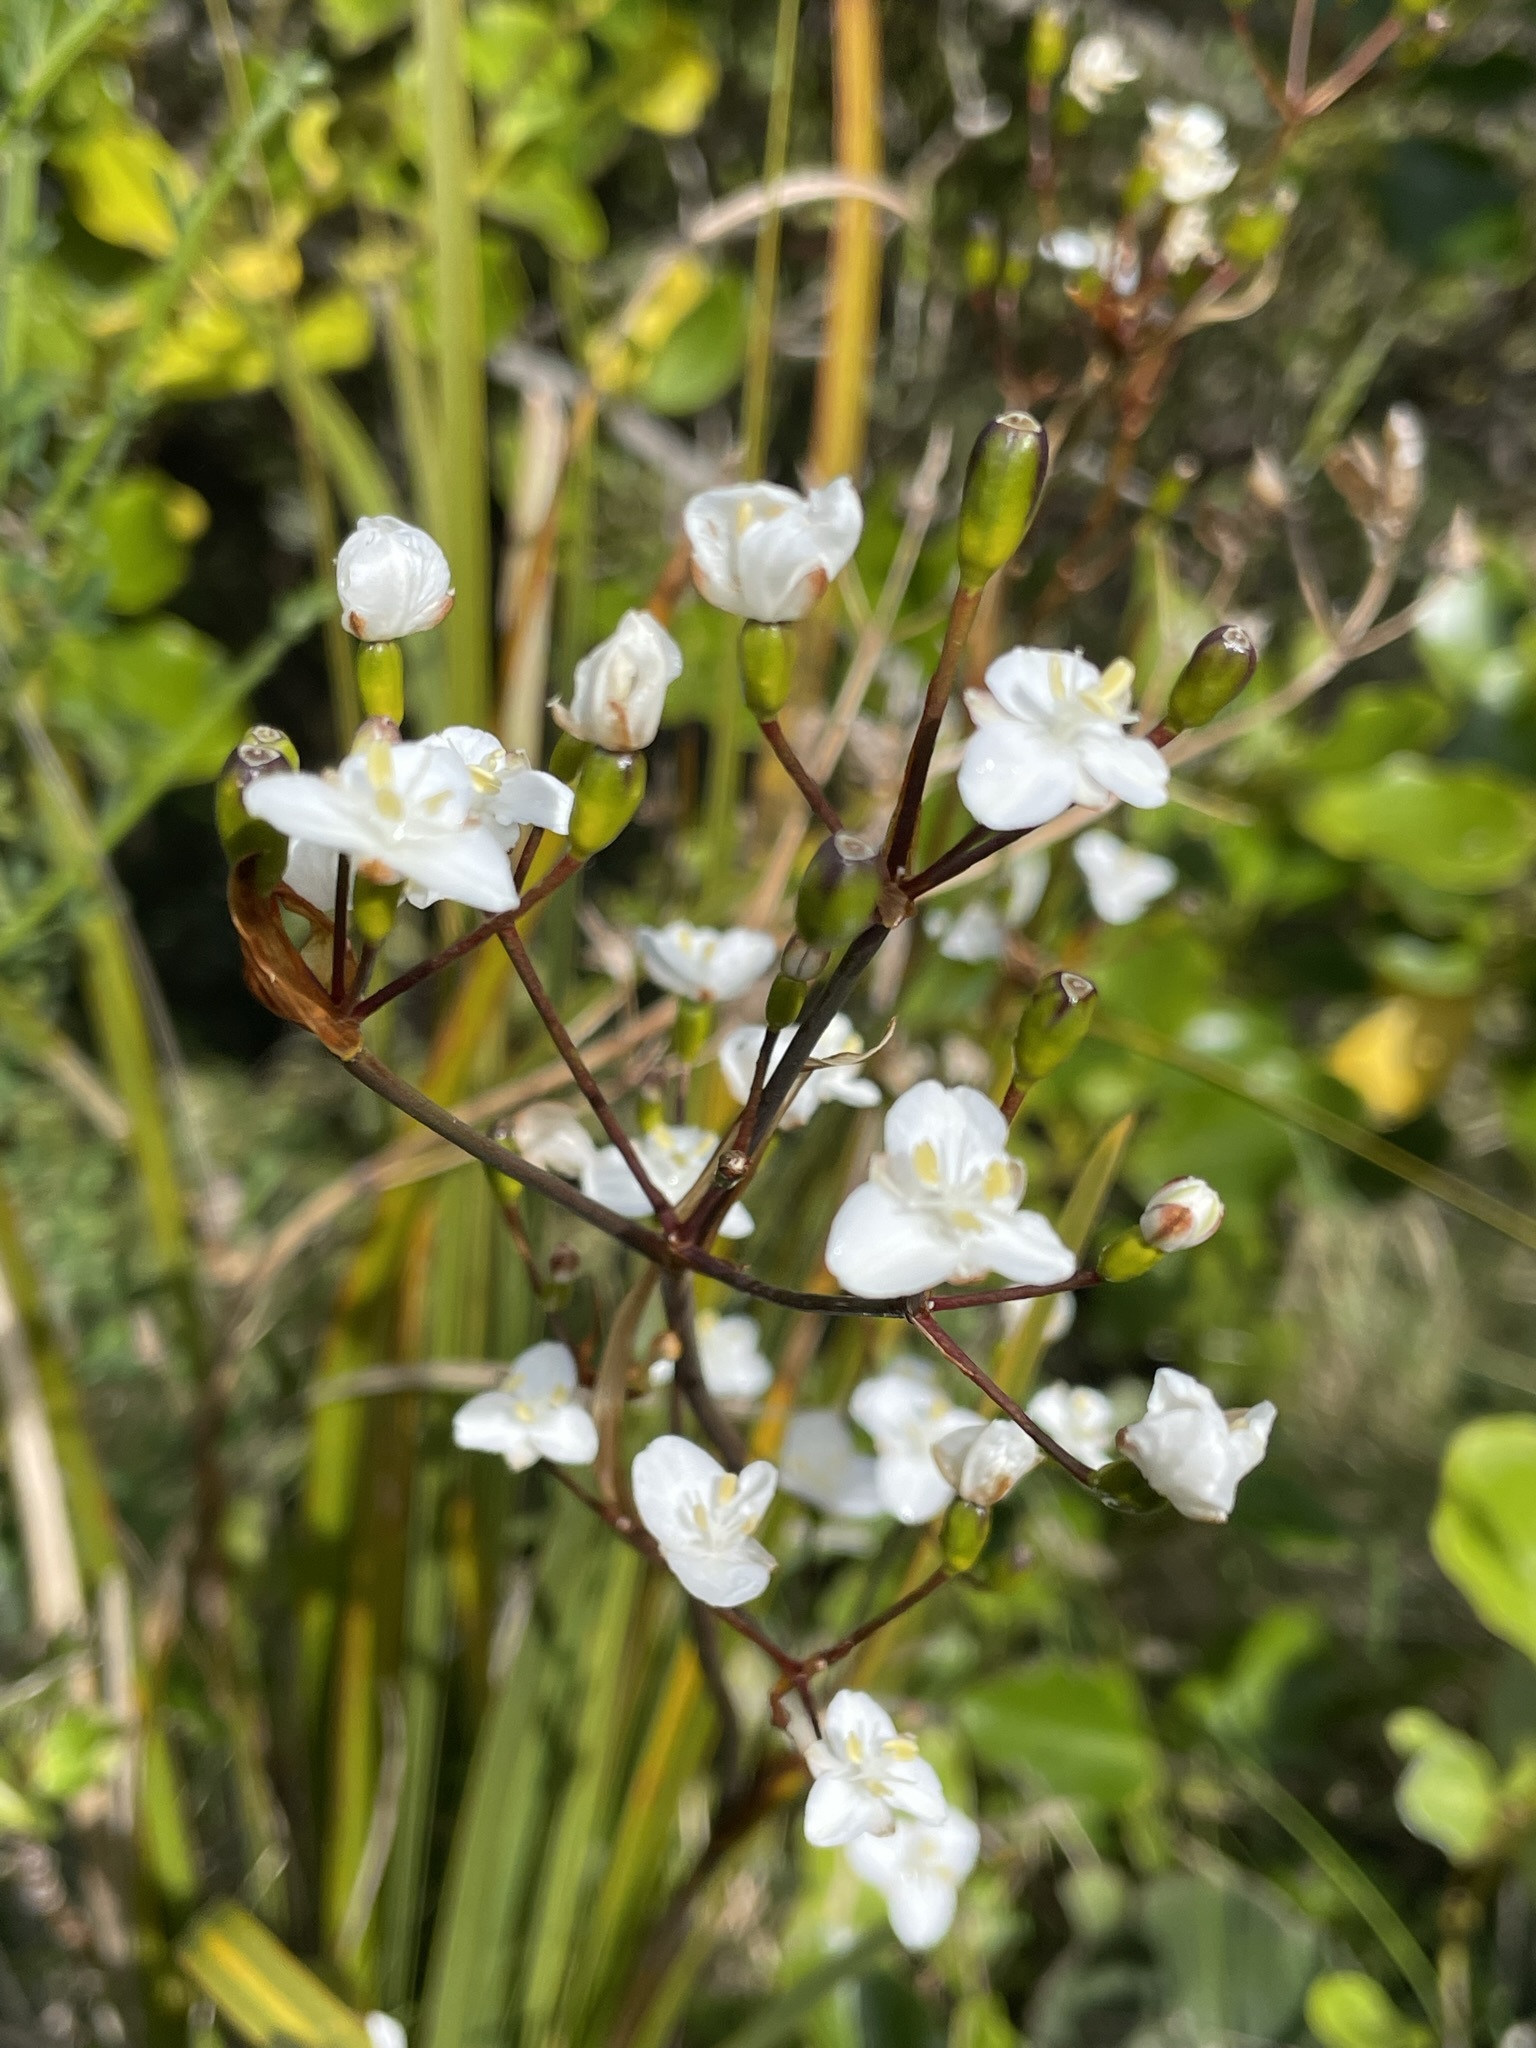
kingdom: Plantae
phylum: Tracheophyta
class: Liliopsida
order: Asparagales
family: Iridaceae
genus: Libertia
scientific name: Libertia ixioides
